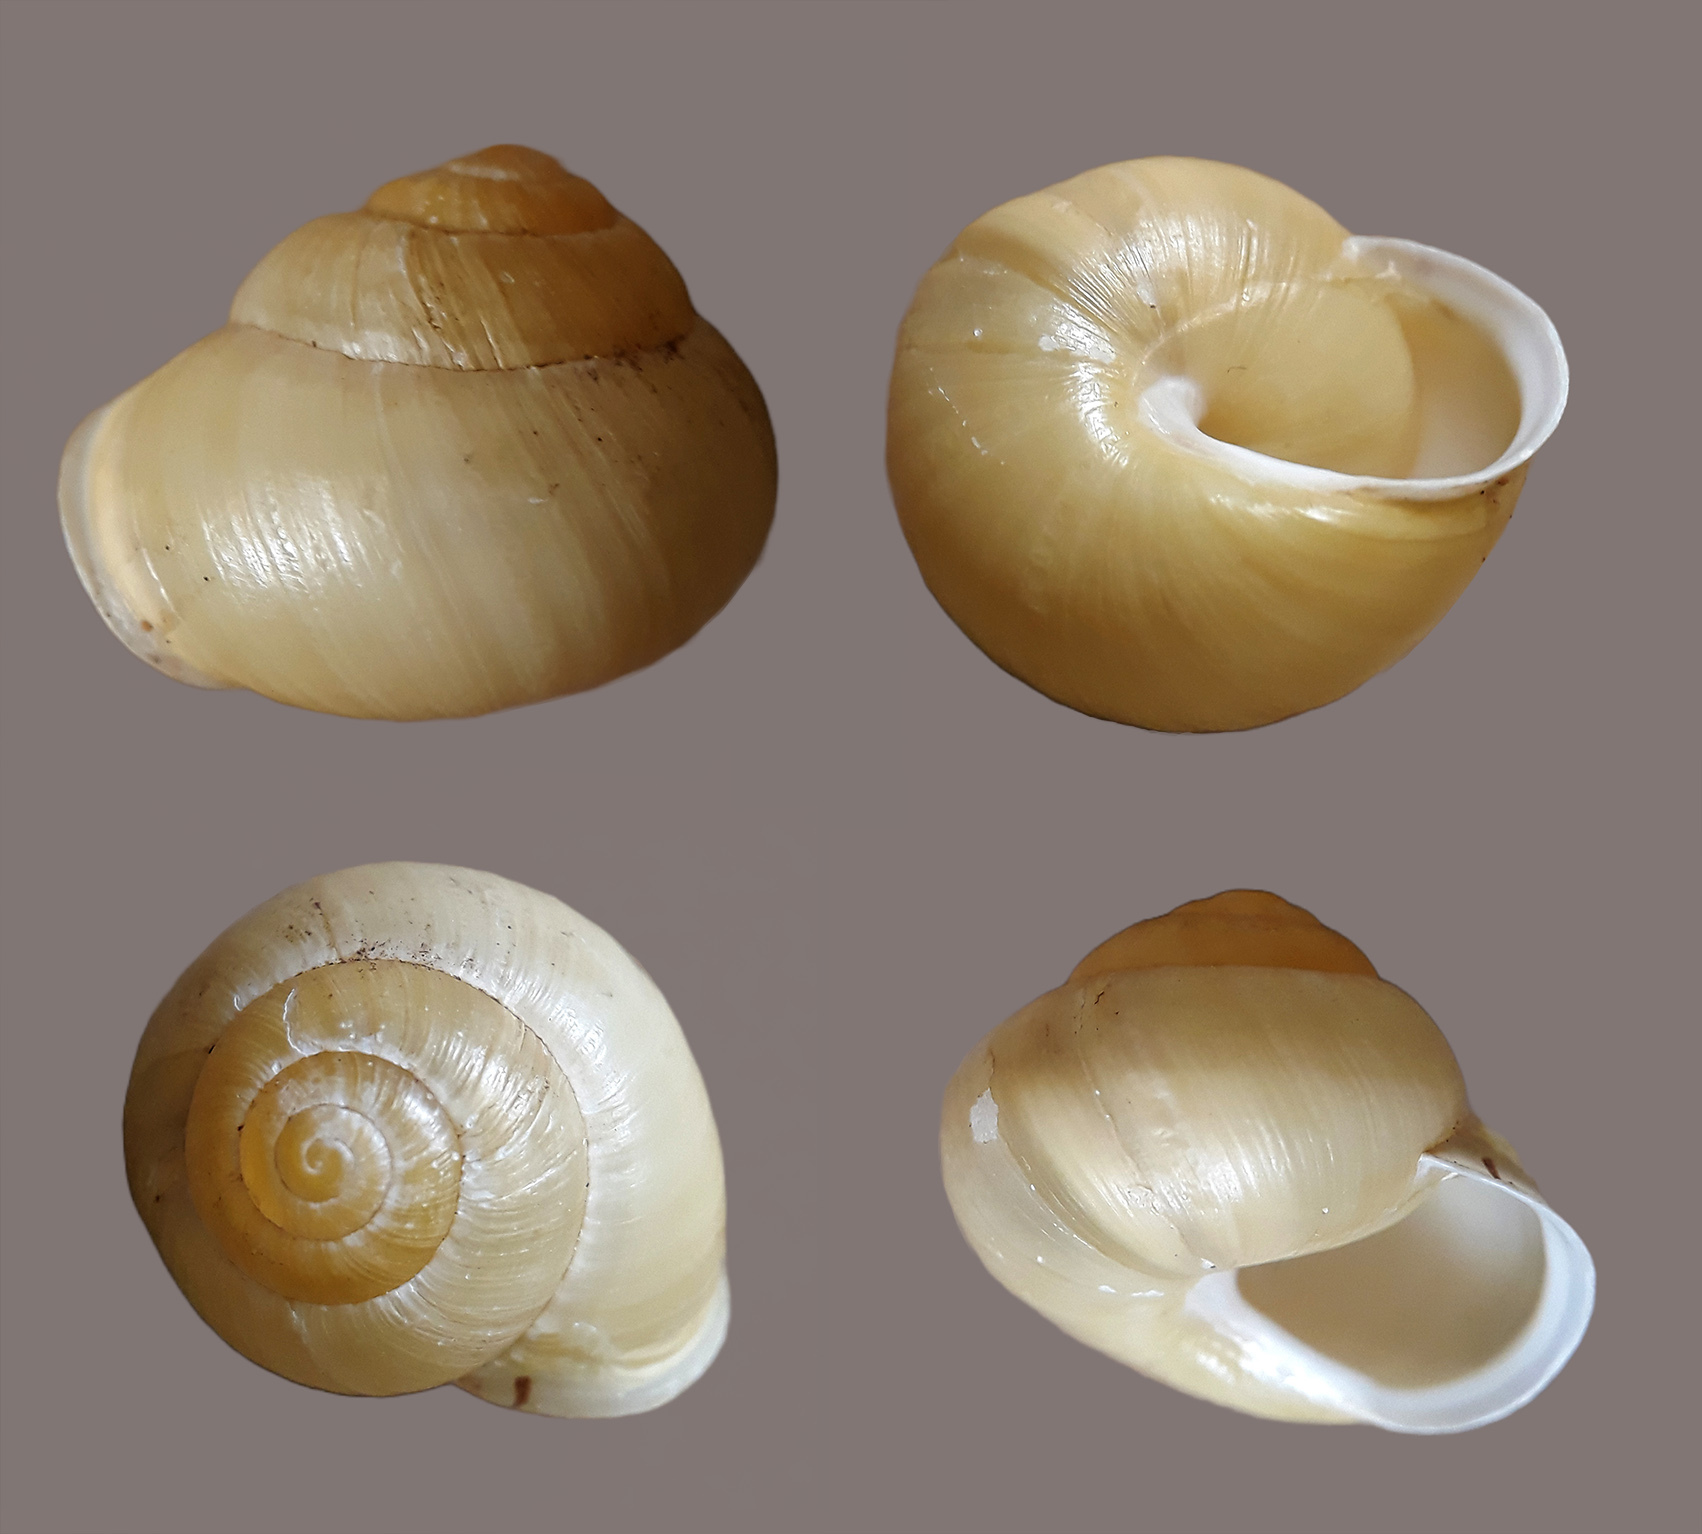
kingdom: Animalia
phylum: Mollusca
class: Gastropoda
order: Stylommatophora
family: Helicidae
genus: Cepaea
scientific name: Cepaea hortensis
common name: White-lip gardensnail
